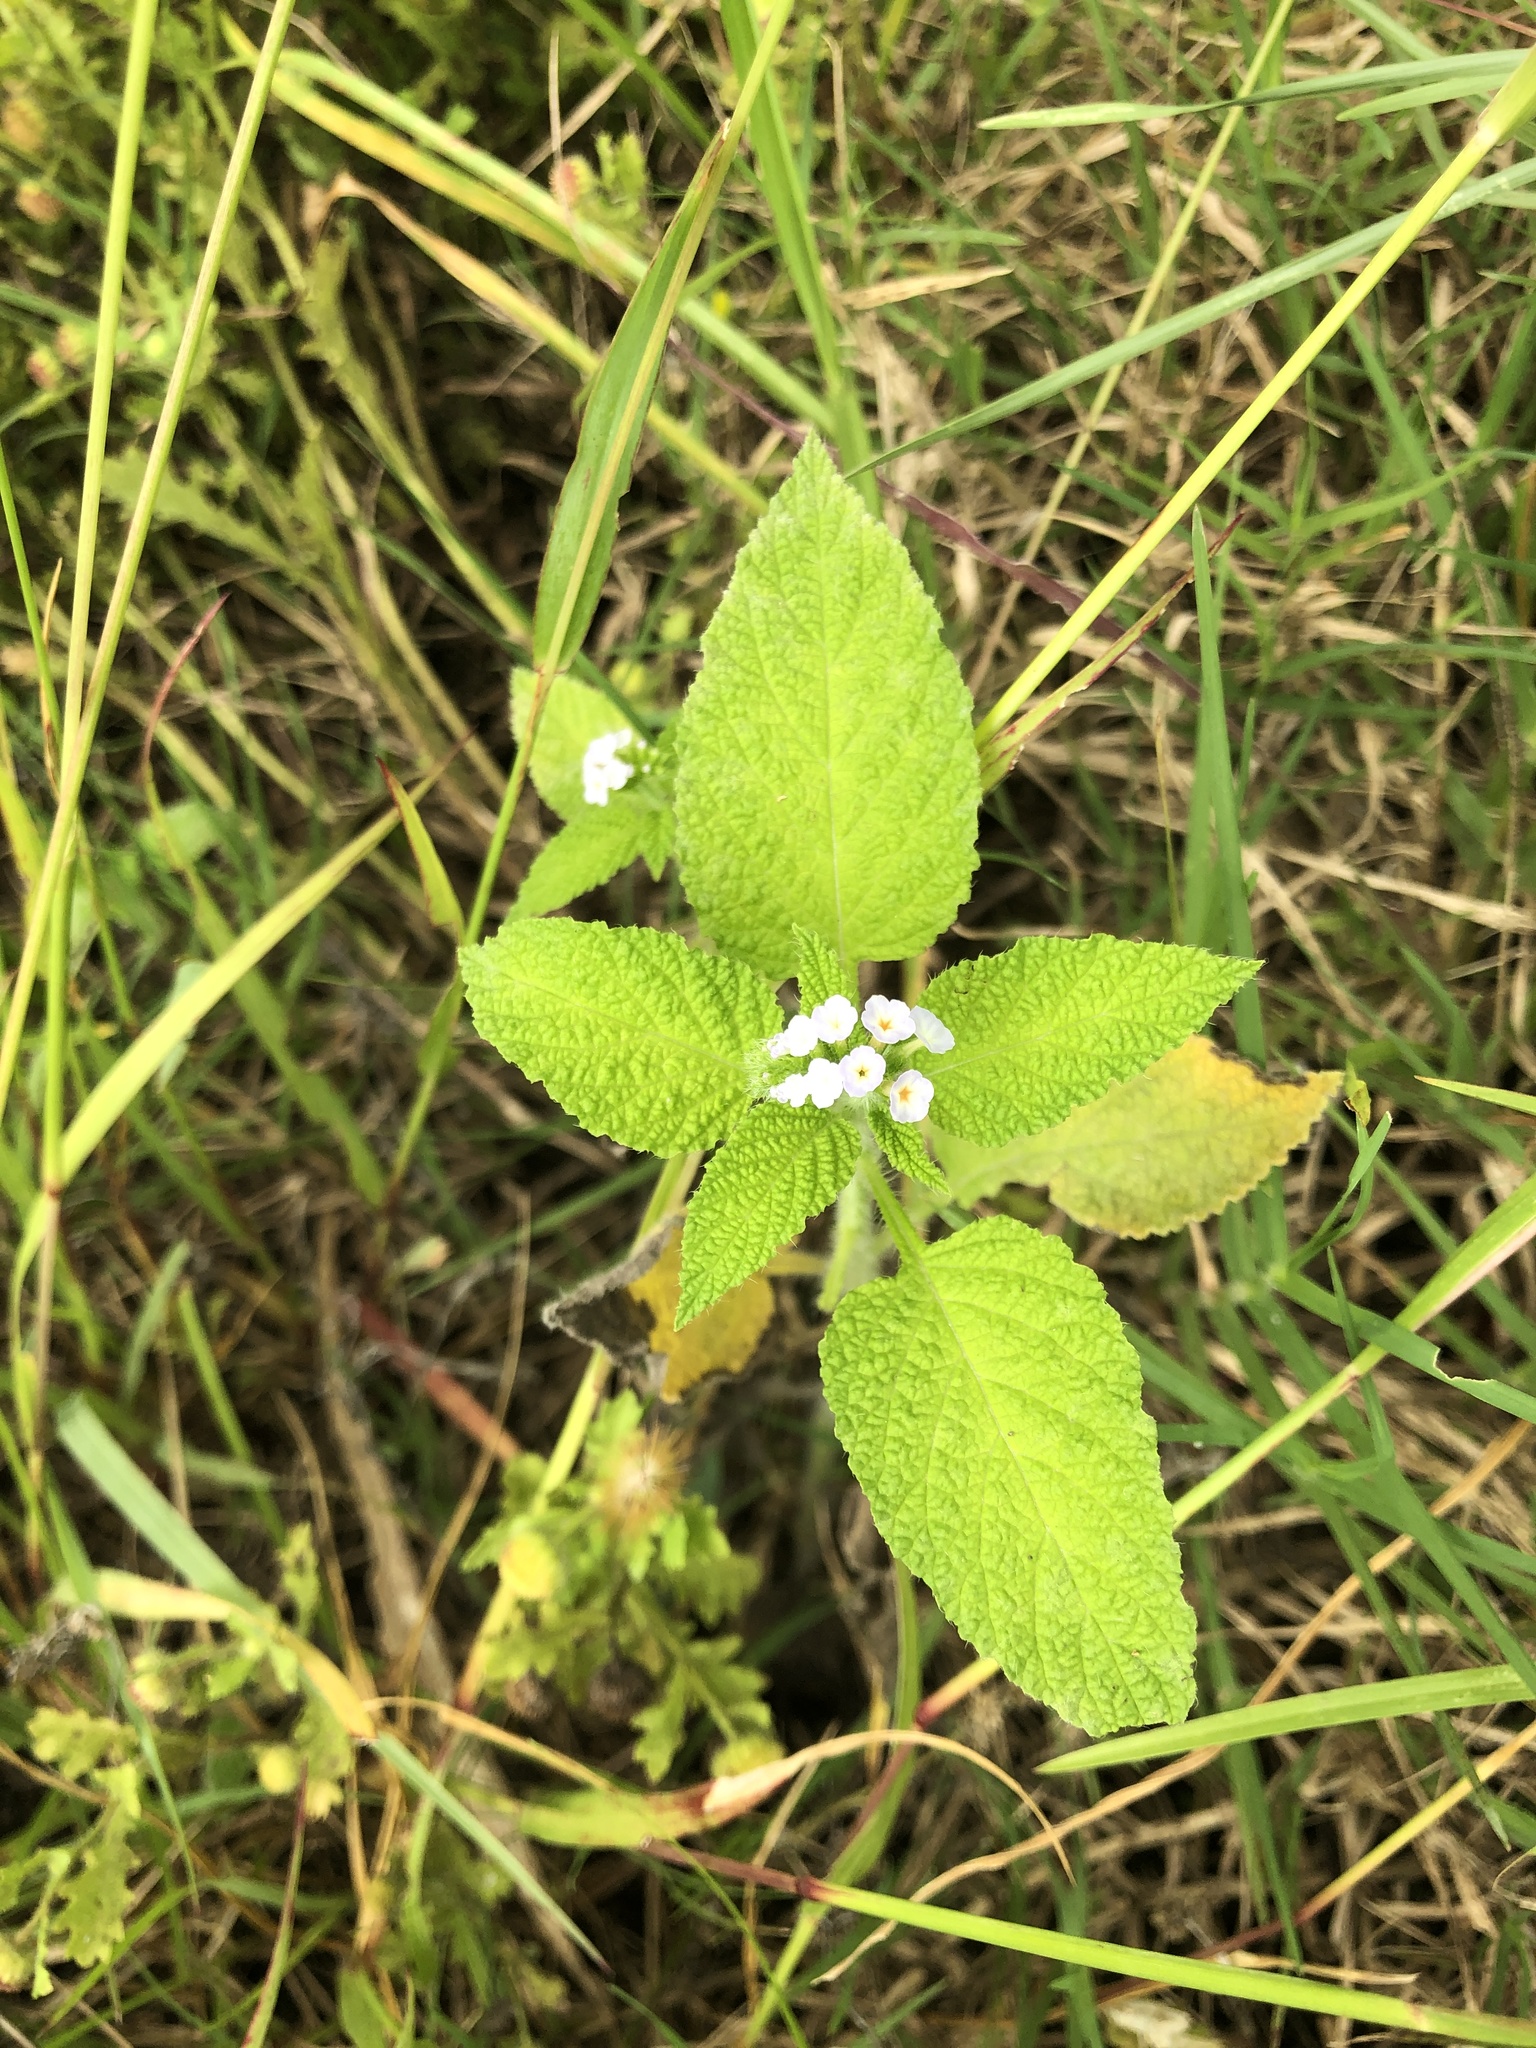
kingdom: Plantae
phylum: Tracheophyta
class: Magnoliopsida
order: Boraginales
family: Heliotropiaceae
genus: Heliotropium
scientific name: Heliotropium indicum
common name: Indian heliotrope
